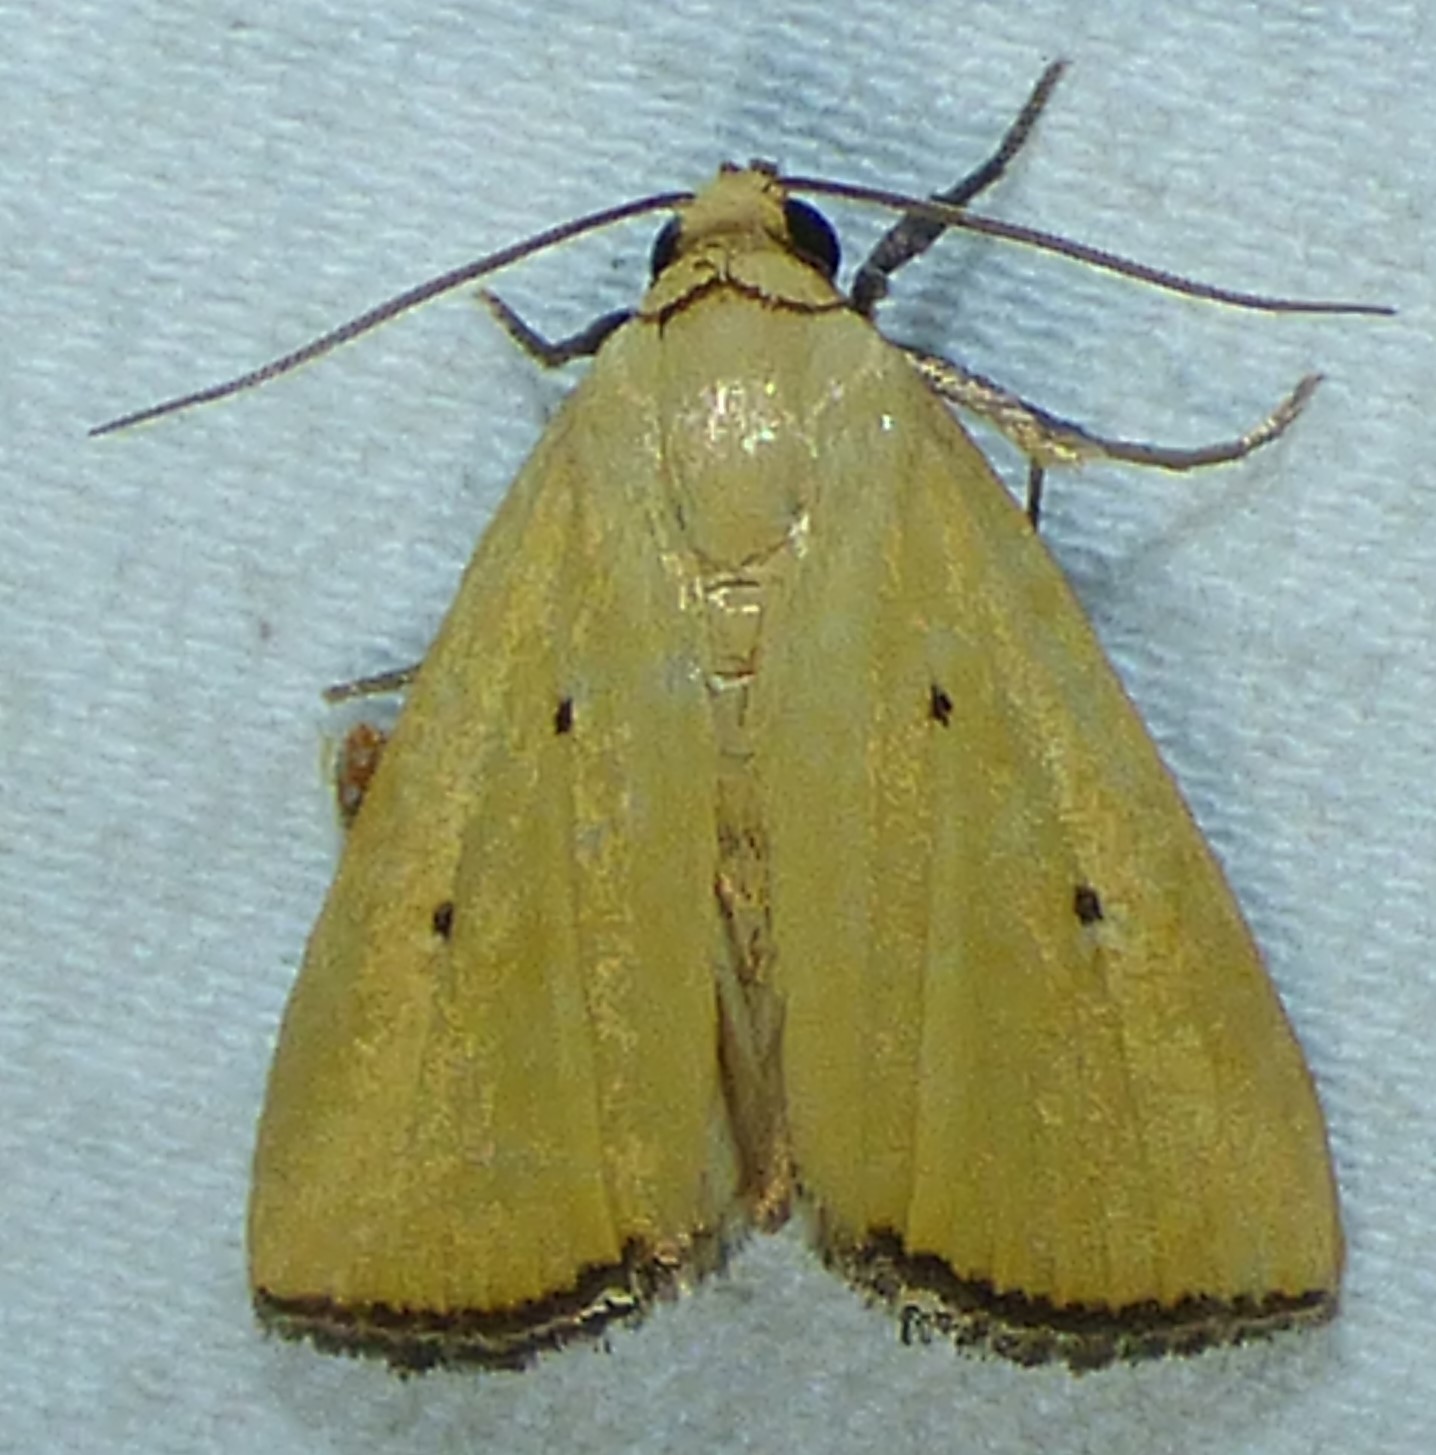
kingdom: Animalia
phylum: Arthropoda
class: Insecta
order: Lepidoptera
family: Noctuidae
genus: Marimatha
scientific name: Marimatha nigrofimbria
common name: Black-bordered lemon moth
